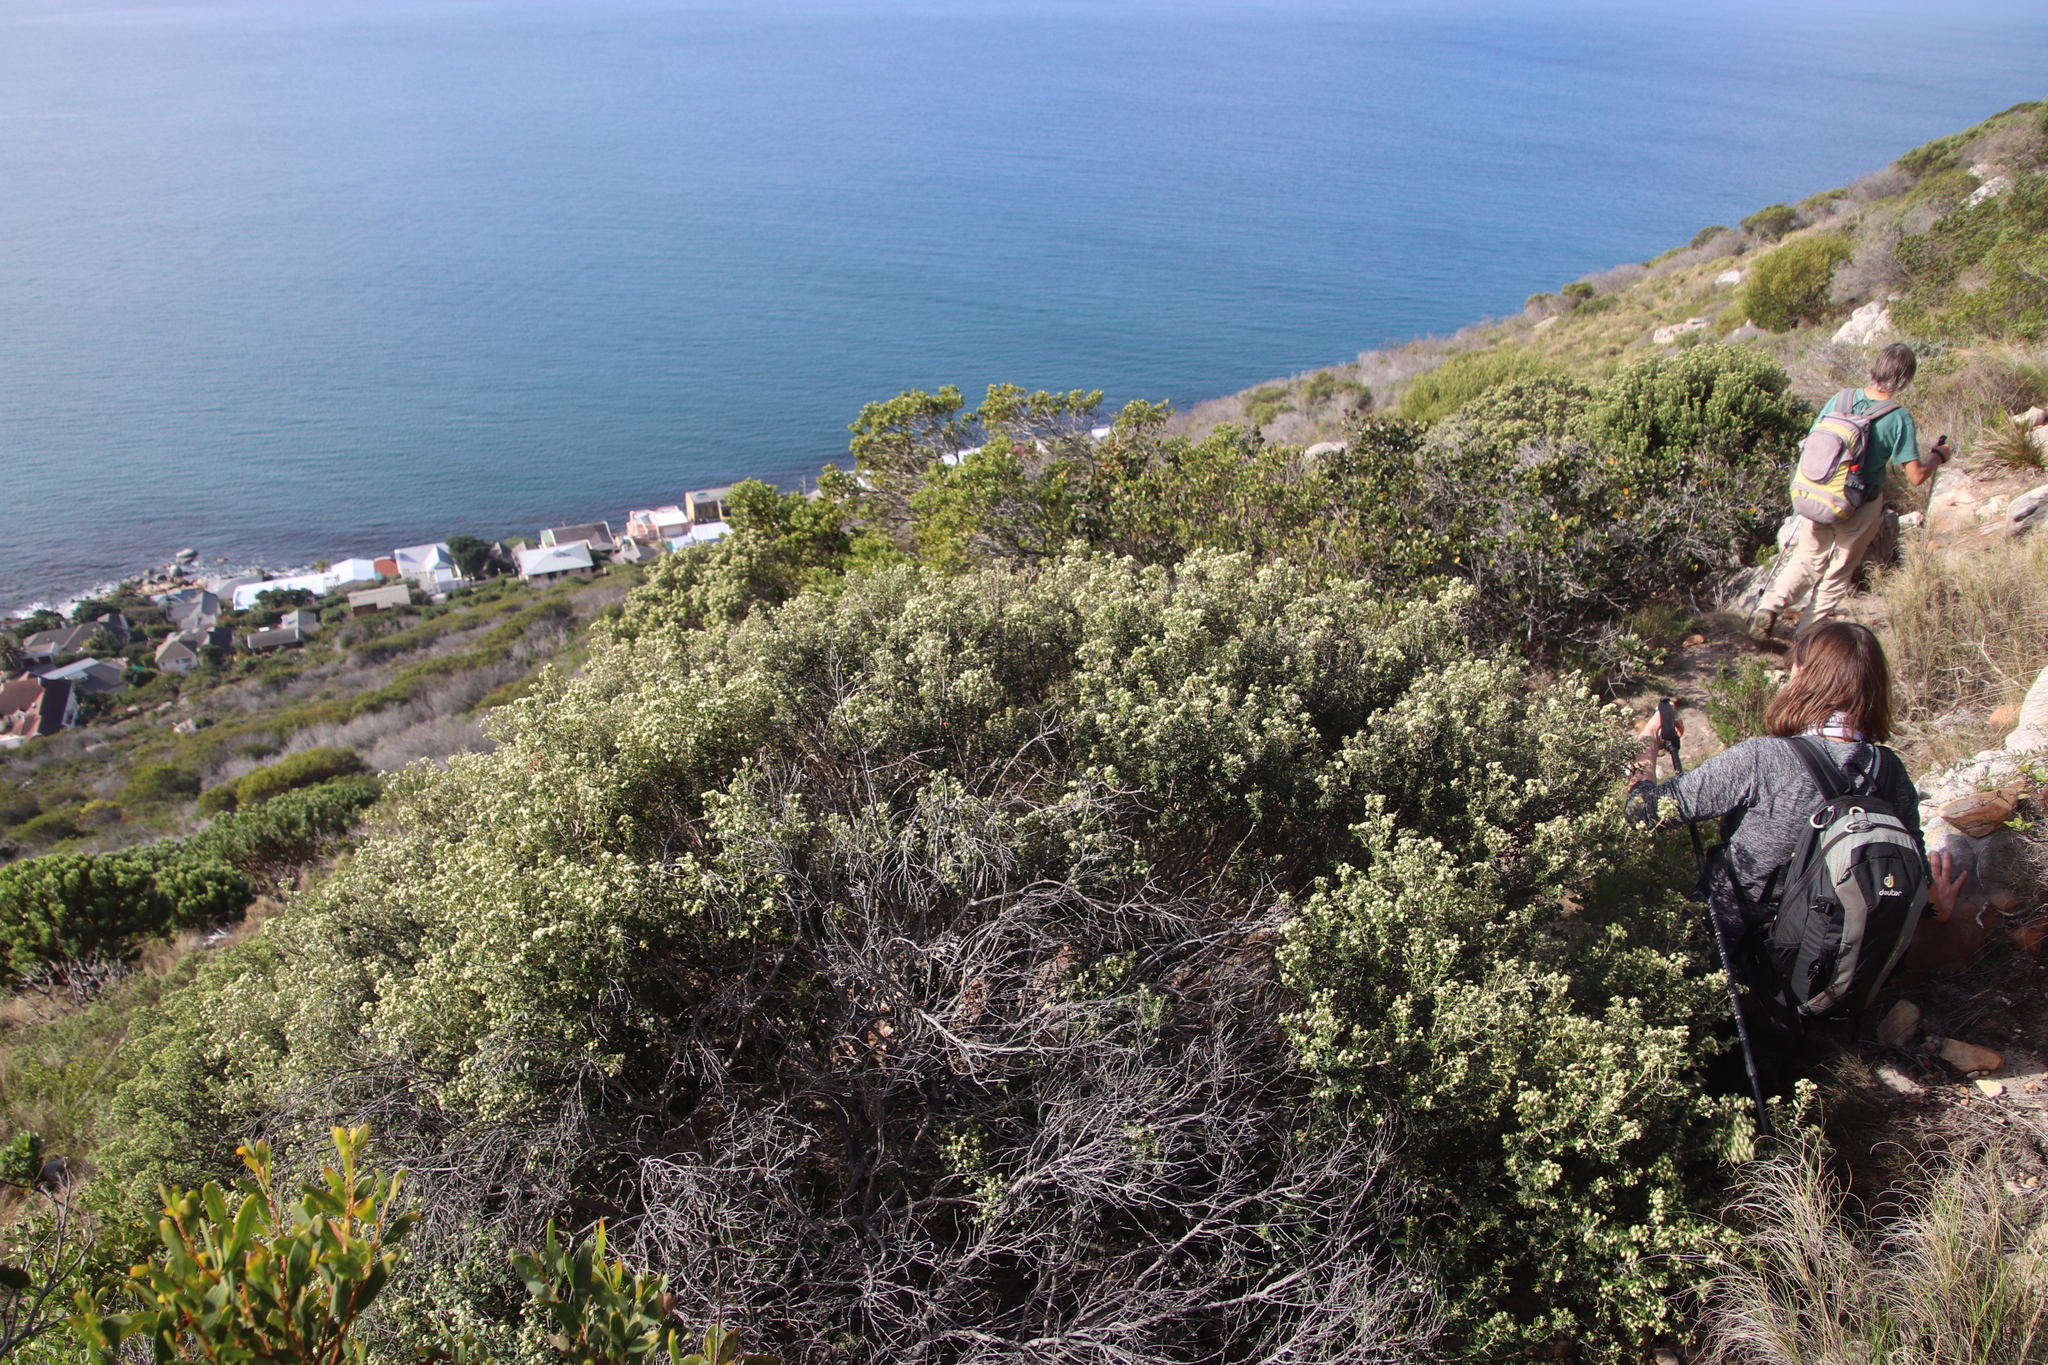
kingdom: Plantae
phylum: Tracheophyta
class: Magnoliopsida
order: Rosales
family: Rhamnaceae
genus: Phylica
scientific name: Phylica buxifolia
